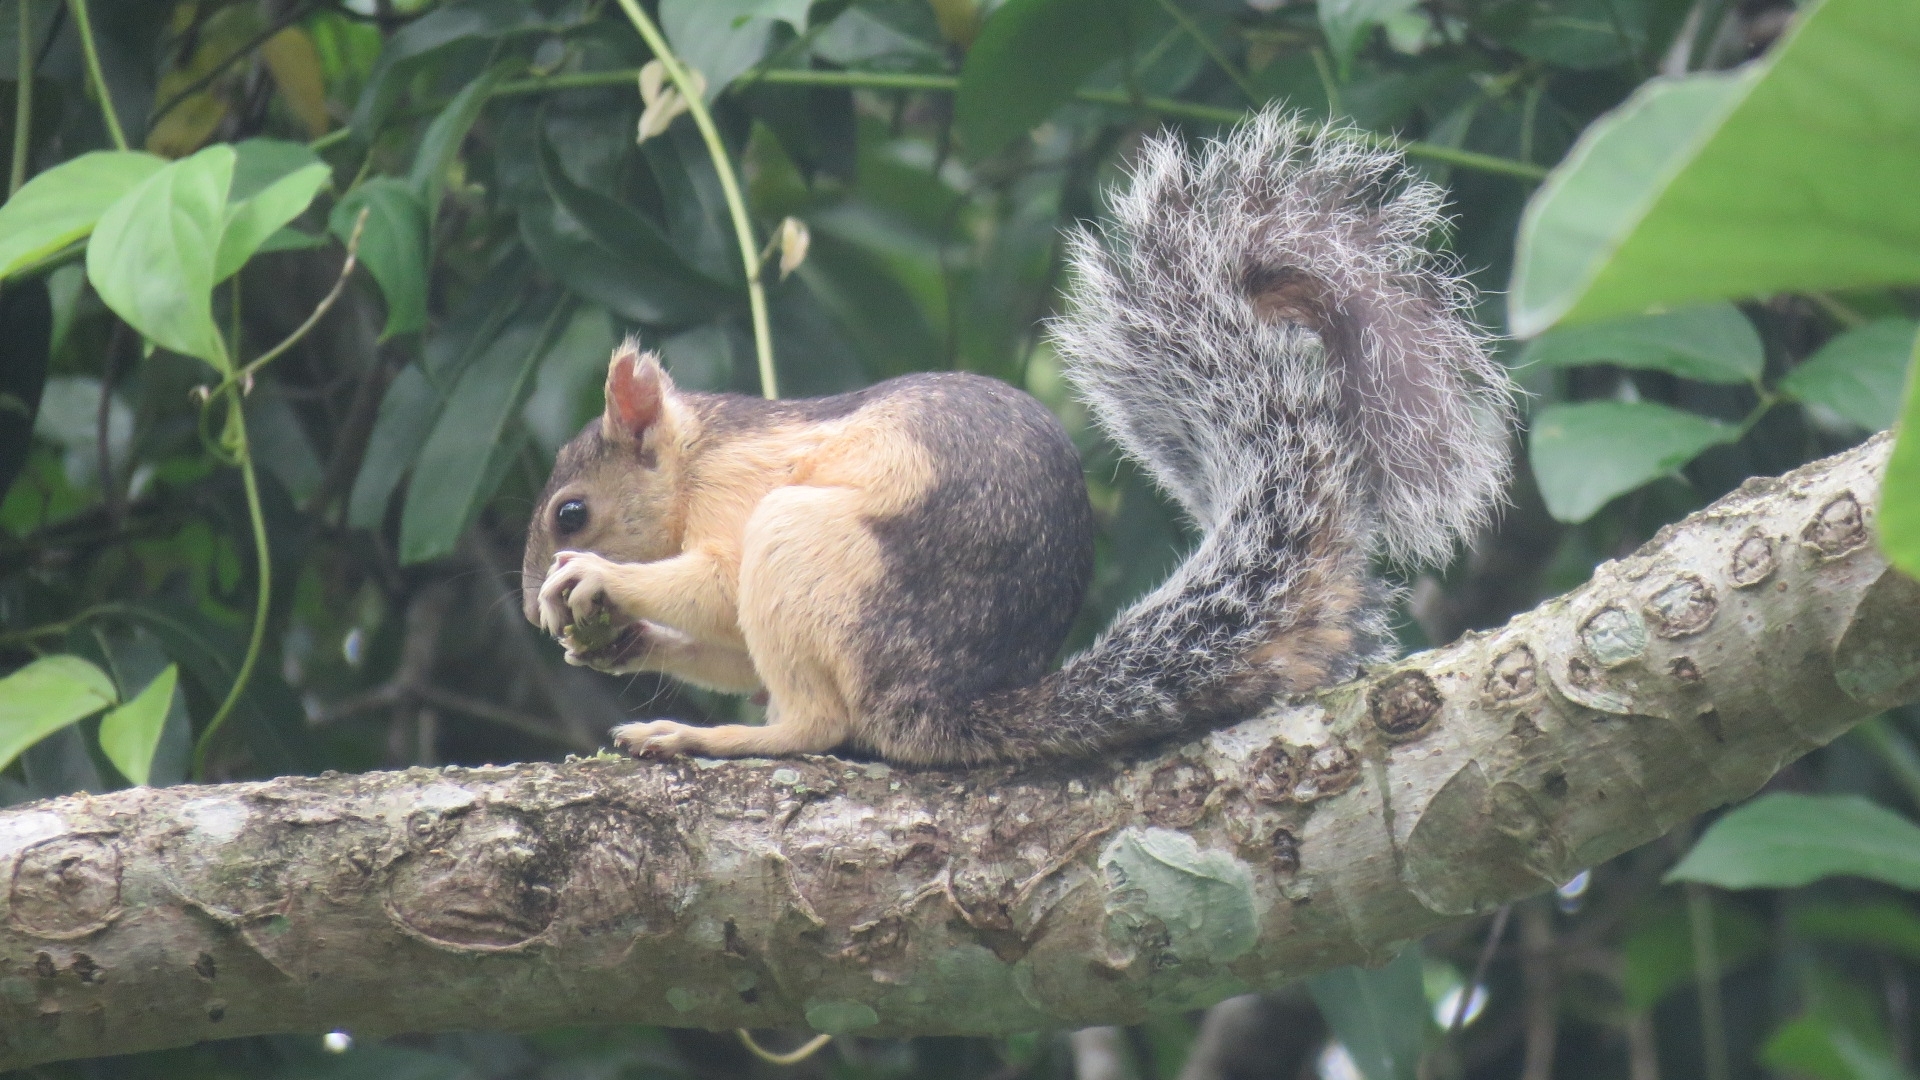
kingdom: Animalia
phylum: Chordata
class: Mammalia
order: Rodentia
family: Sciuridae
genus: Sciurus
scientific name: Sciurus variegatoides
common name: Variegated squirrel
